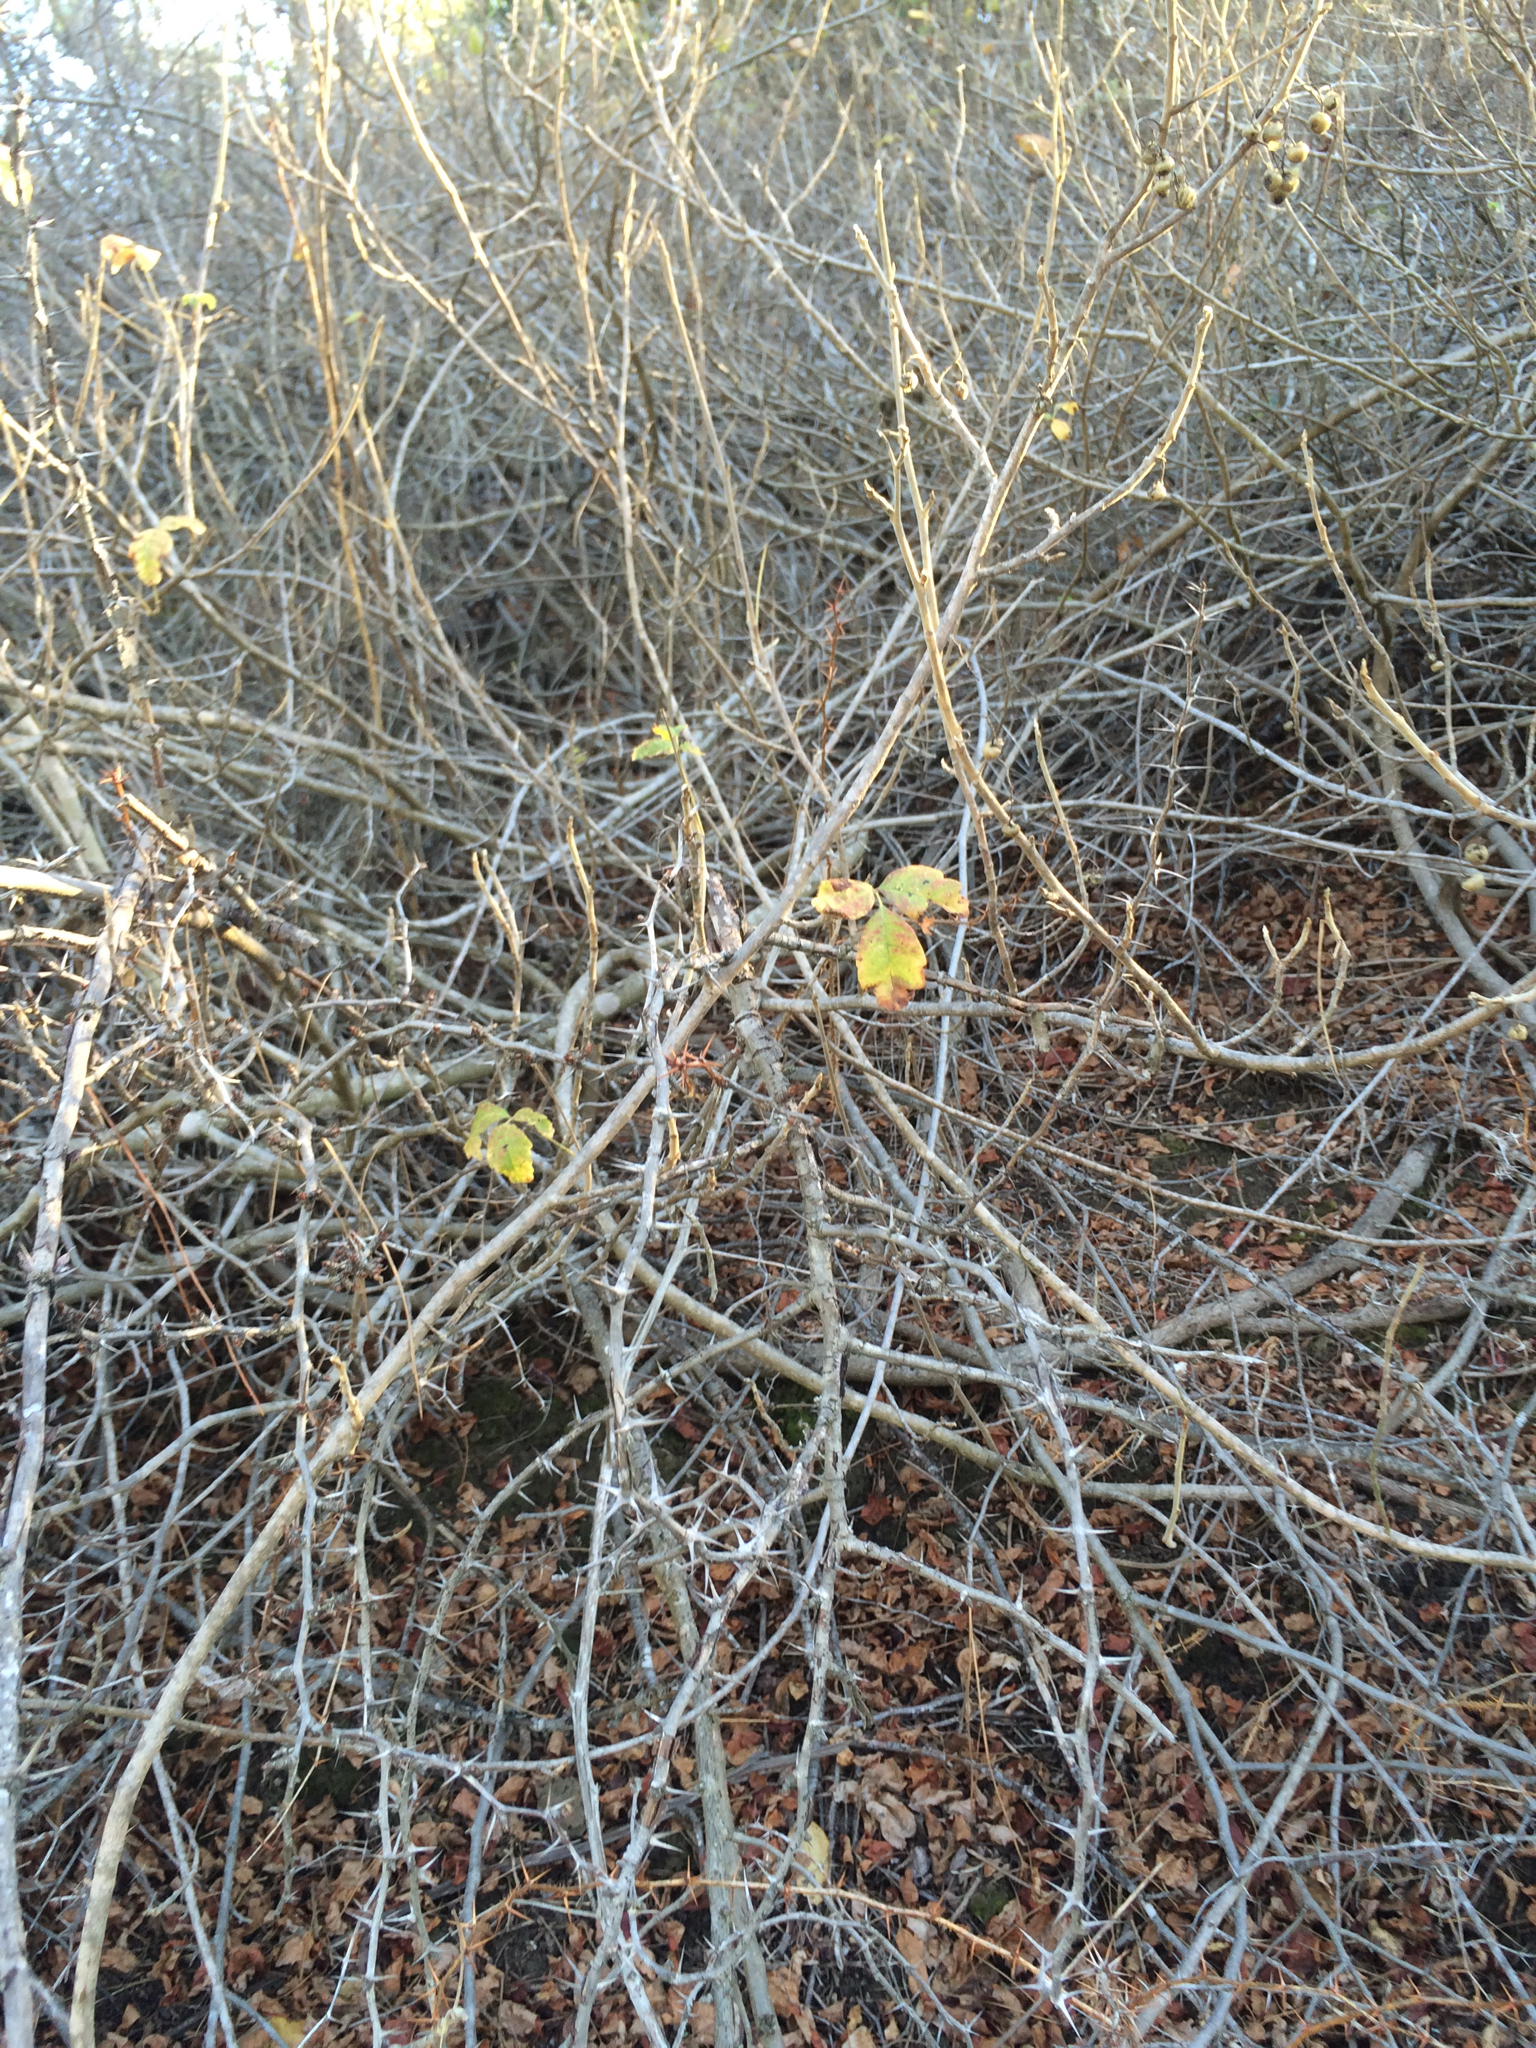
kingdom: Plantae
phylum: Tracheophyta
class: Magnoliopsida
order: Sapindales
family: Anacardiaceae
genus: Toxicodendron
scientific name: Toxicodendron diversilobum
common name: Pacific poison-oak
